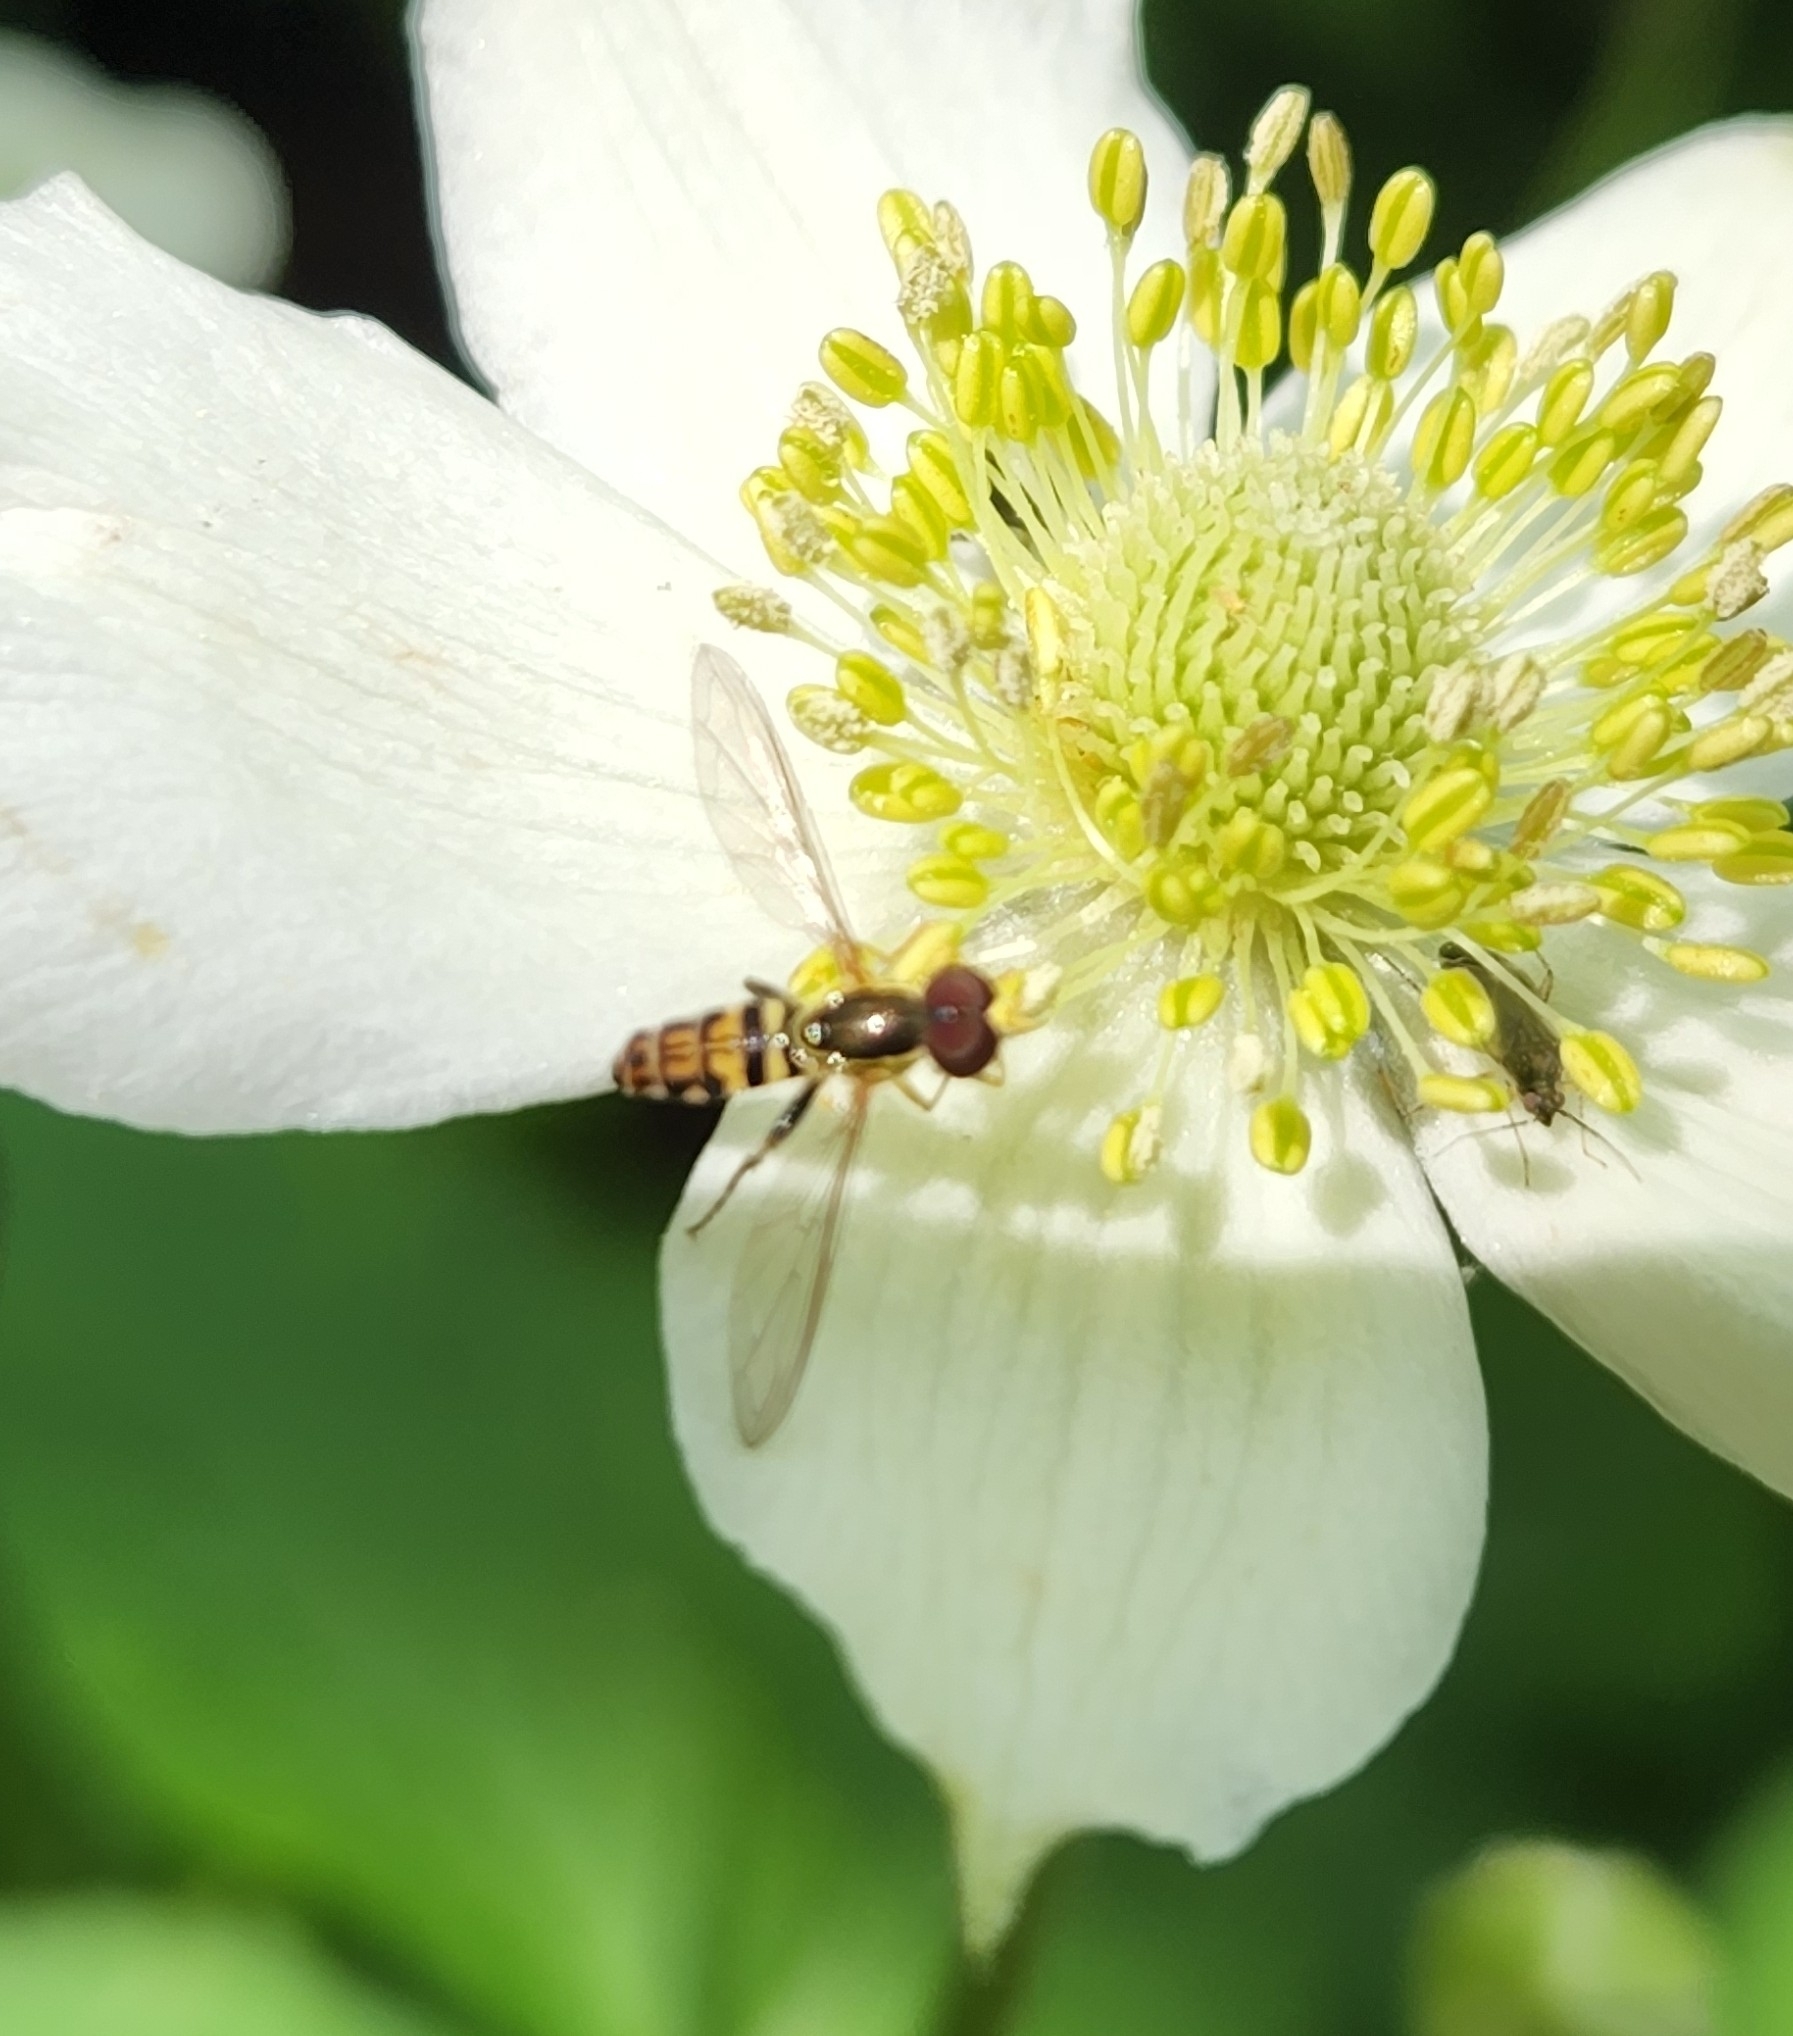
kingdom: Animalia
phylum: Arthropoda
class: Insecta
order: Diptera
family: Syrphidae
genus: Toxomerus
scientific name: Toxomerus geminatus
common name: Eastern calligrapher
